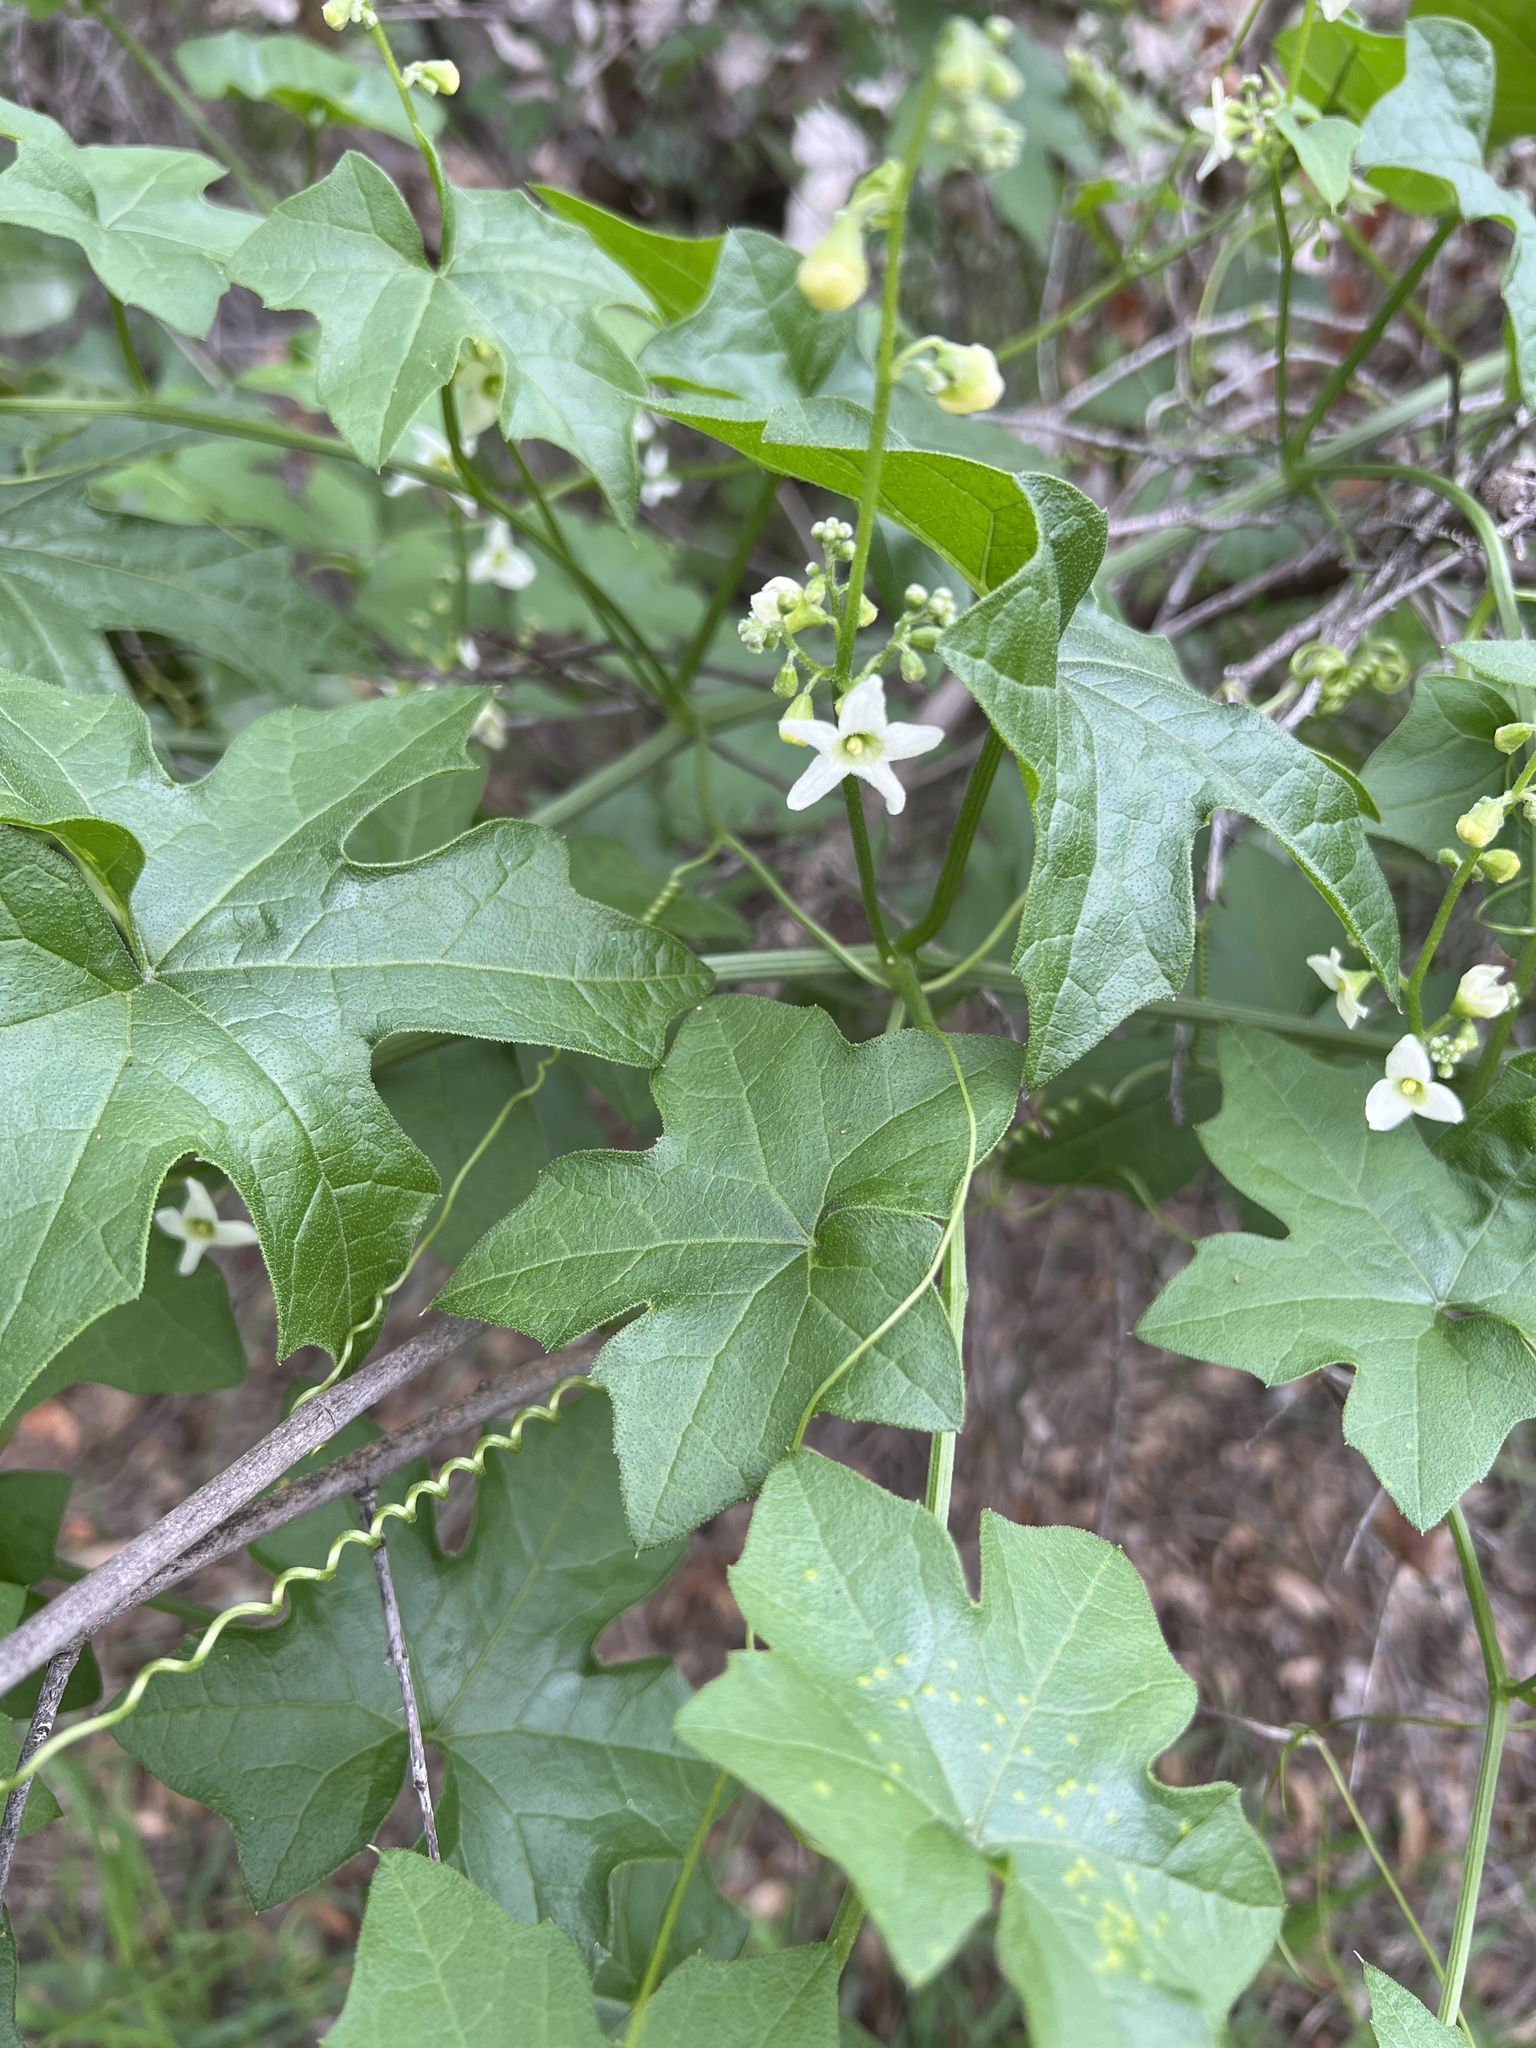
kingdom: Plantae
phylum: Tracheophyta
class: Magnoliopsida
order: Cucurbitales
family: Cucurbitaceae
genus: Marah
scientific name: Marah macrocarpa
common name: Cucamonga manroot
